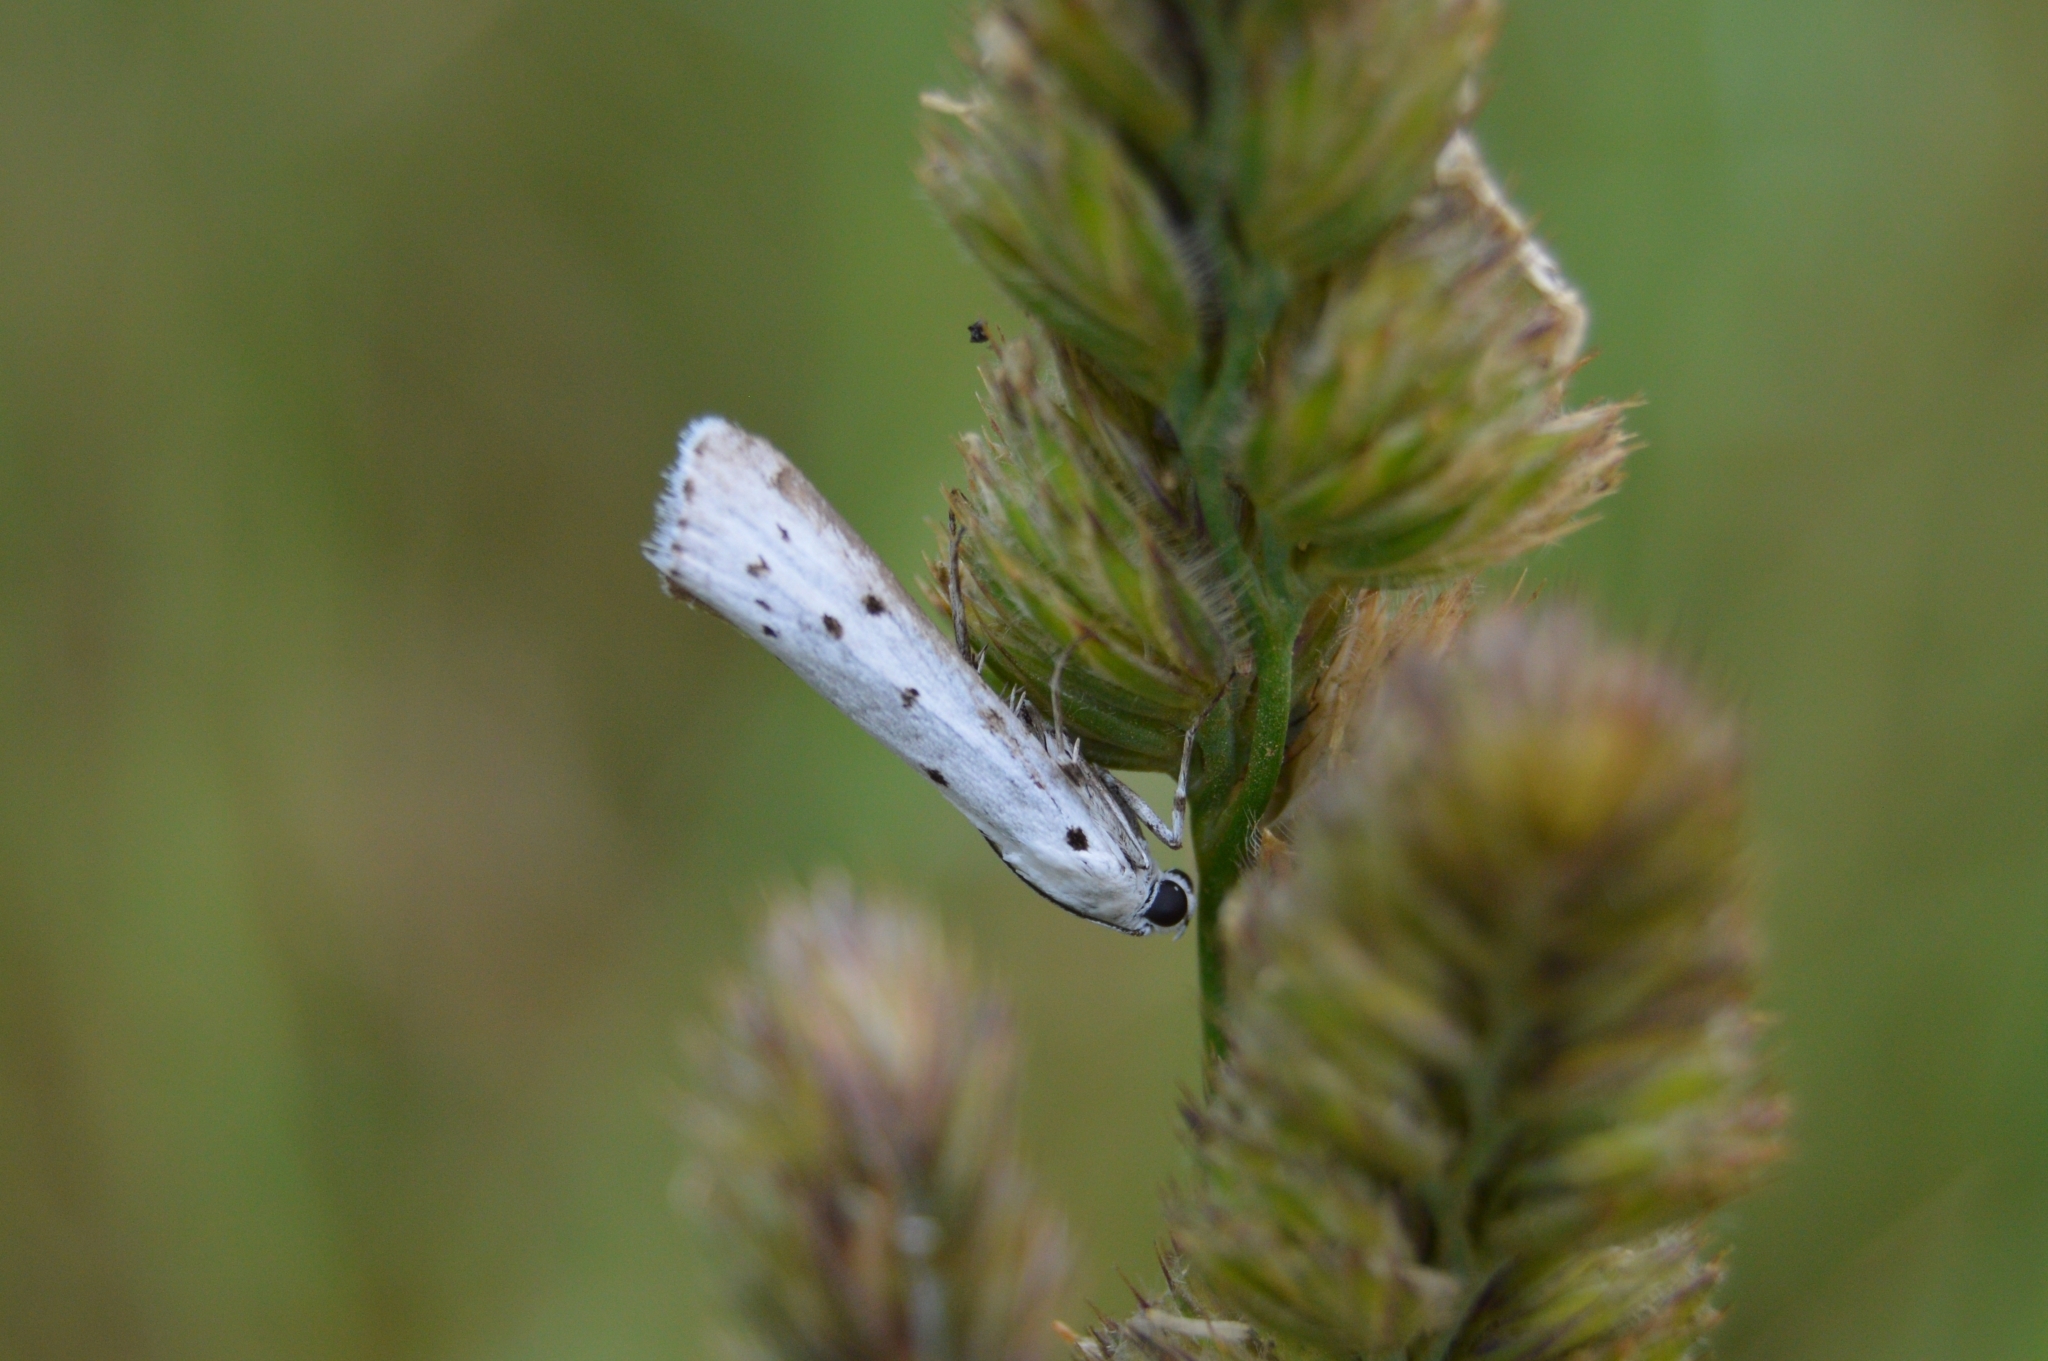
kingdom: Animalia
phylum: Arthropoda
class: Insecta
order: Lepidoptera
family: Pyralidae
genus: Myelois
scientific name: Myelois circumvoluta
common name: Thistle ermine
